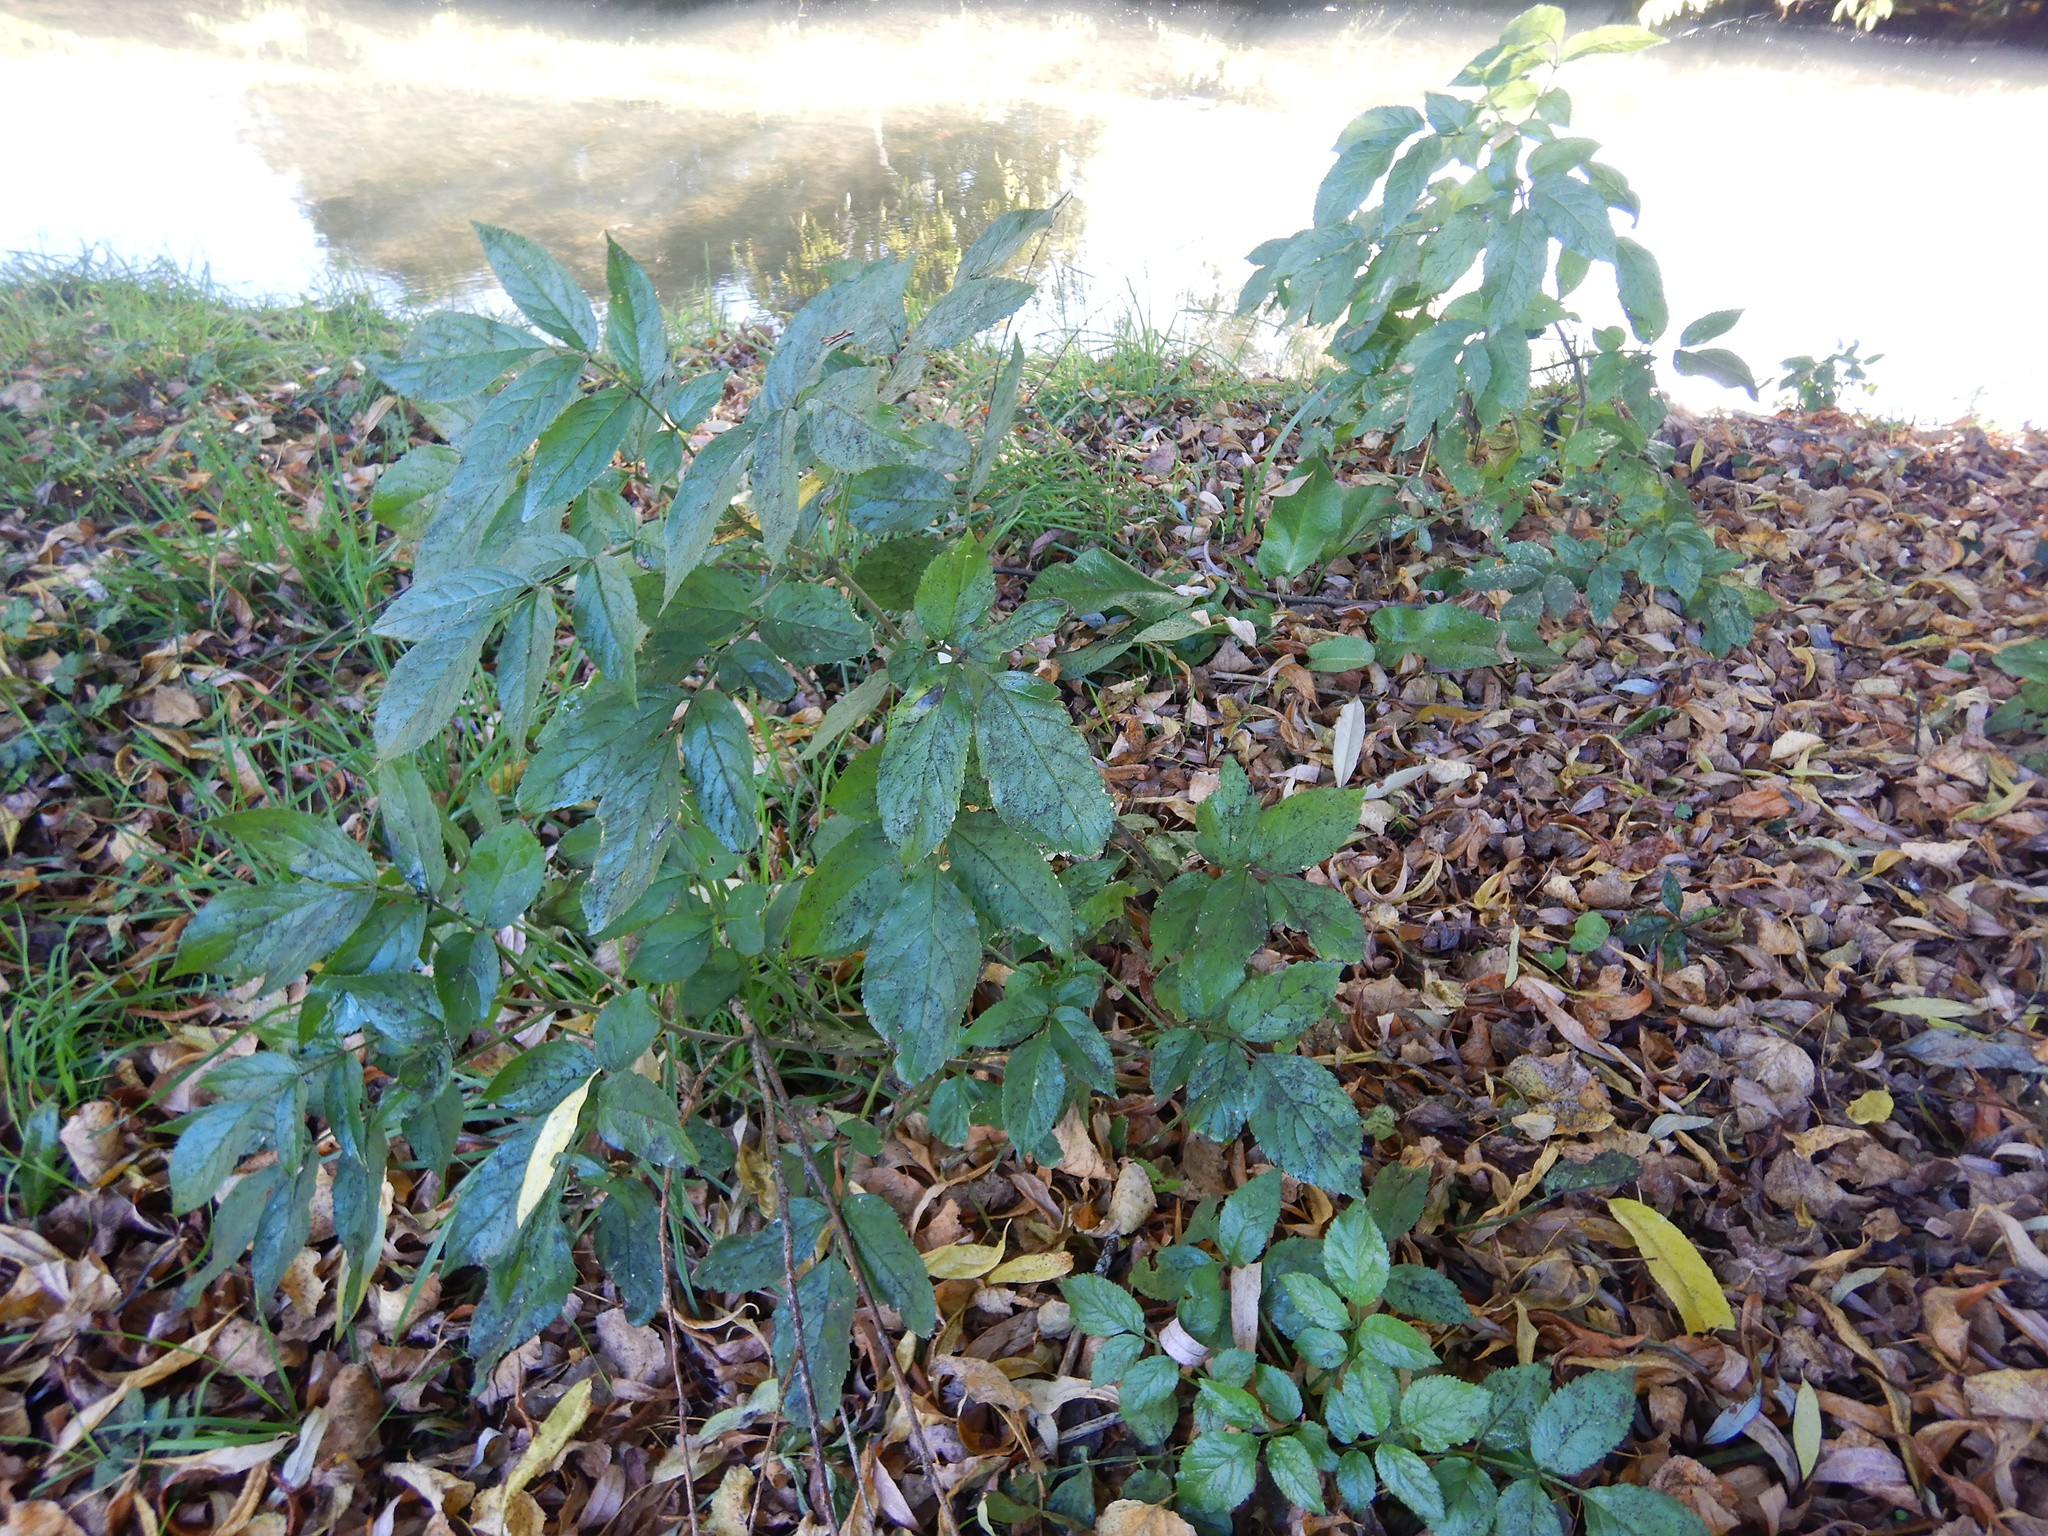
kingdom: Plantae
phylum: Tracheophyta
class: Magnoliopsida
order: Dipsacales
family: Viburnaceae
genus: Sambucus
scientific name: Sambucus nigra
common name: Elder
